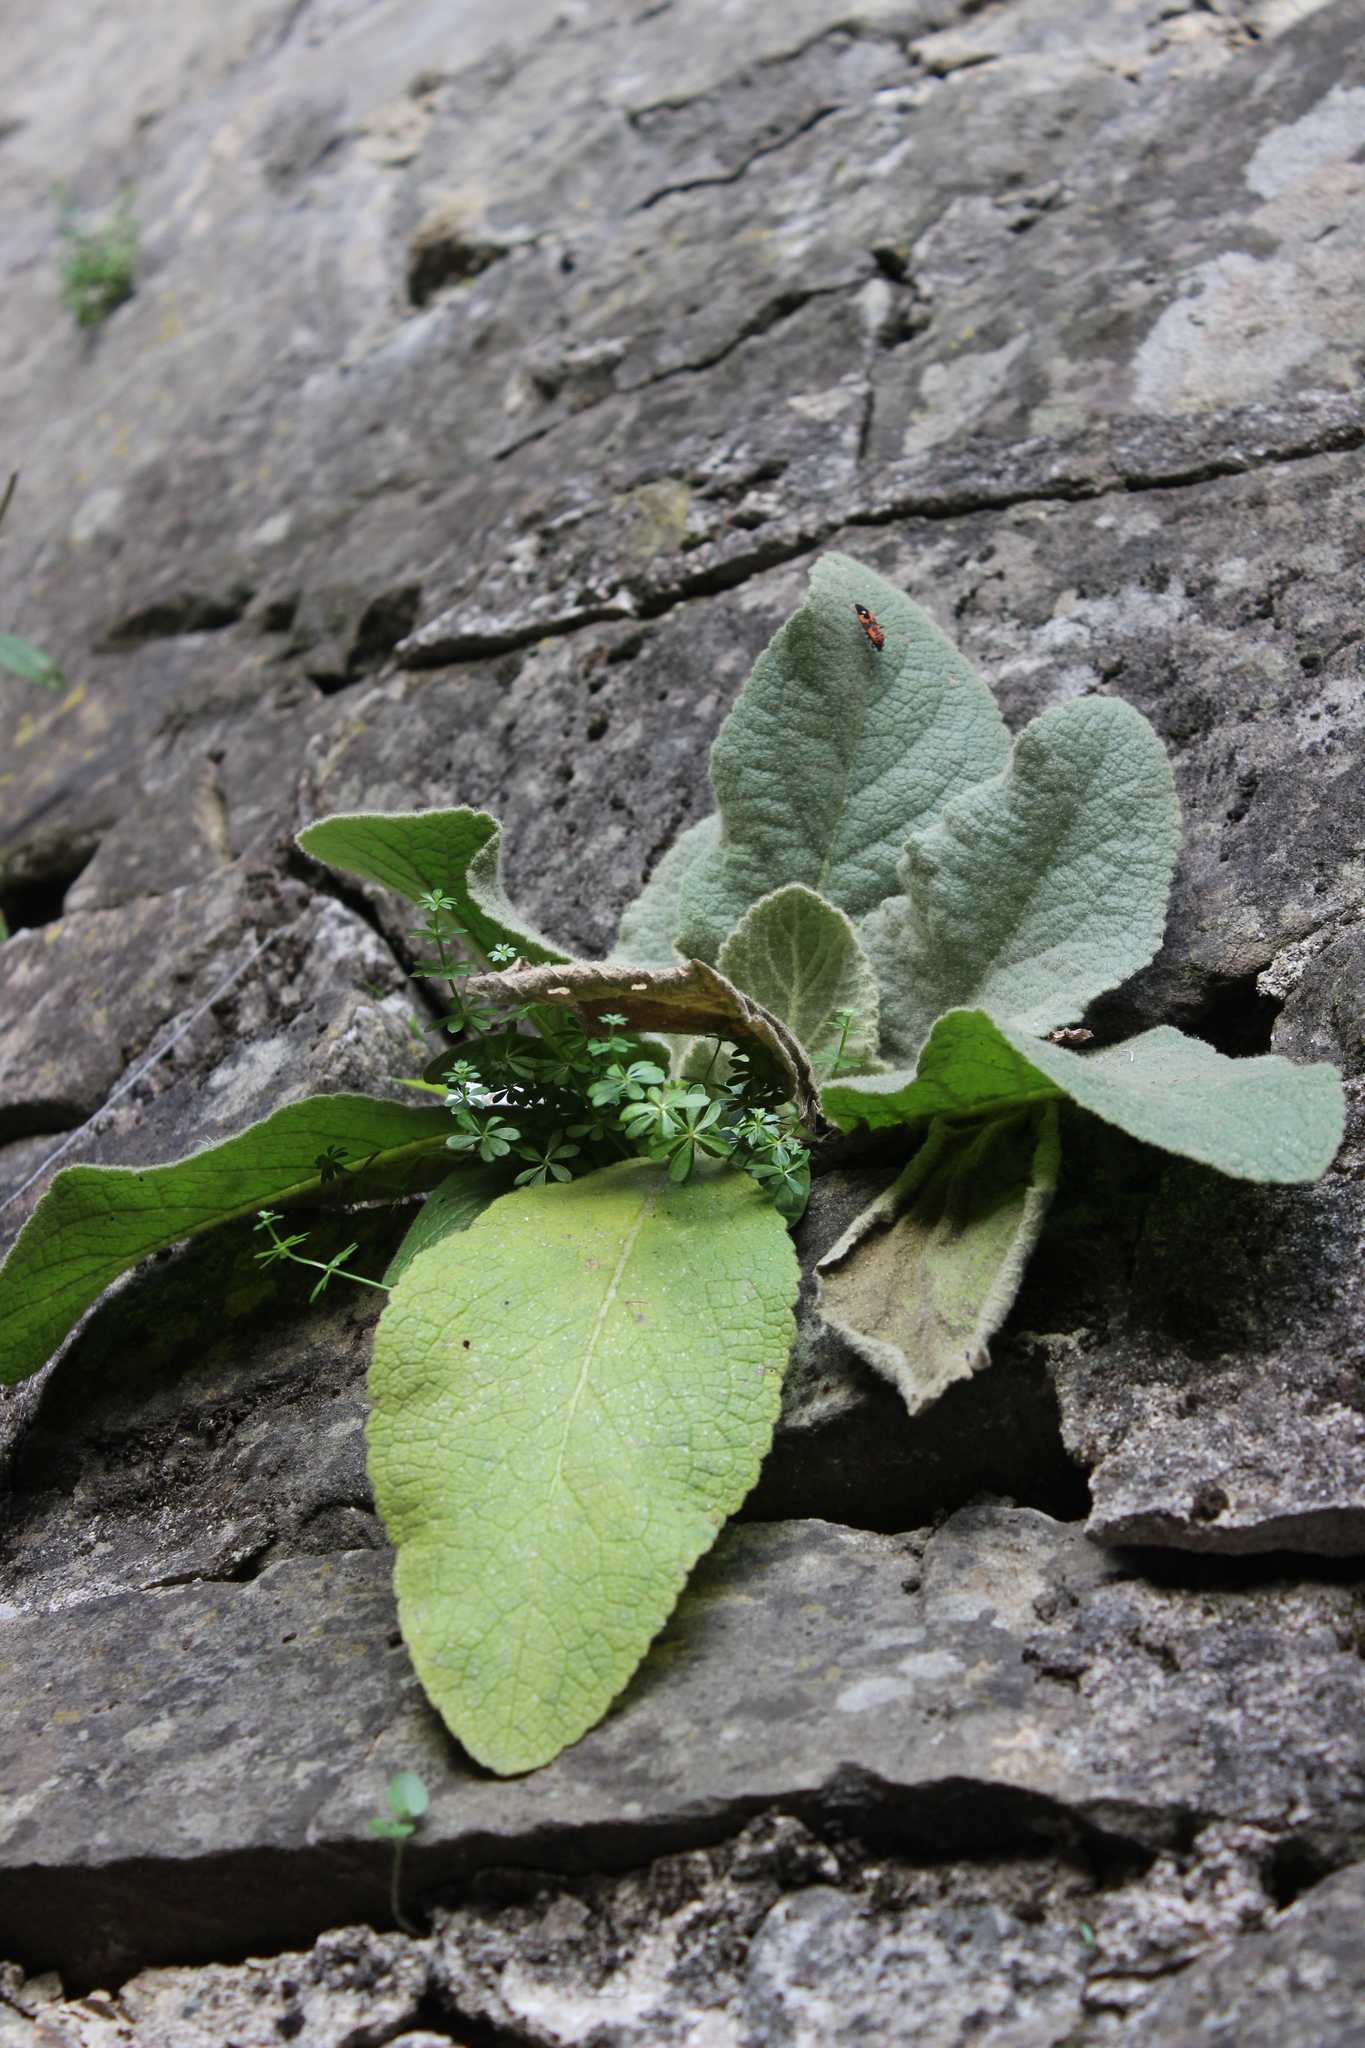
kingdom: Plantae
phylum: Tracheophyta
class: Magnoliopsida
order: Lamiales
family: Scrophulariaceae
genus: Verbascum
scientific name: Verbascum thapsus
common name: Common mullein
